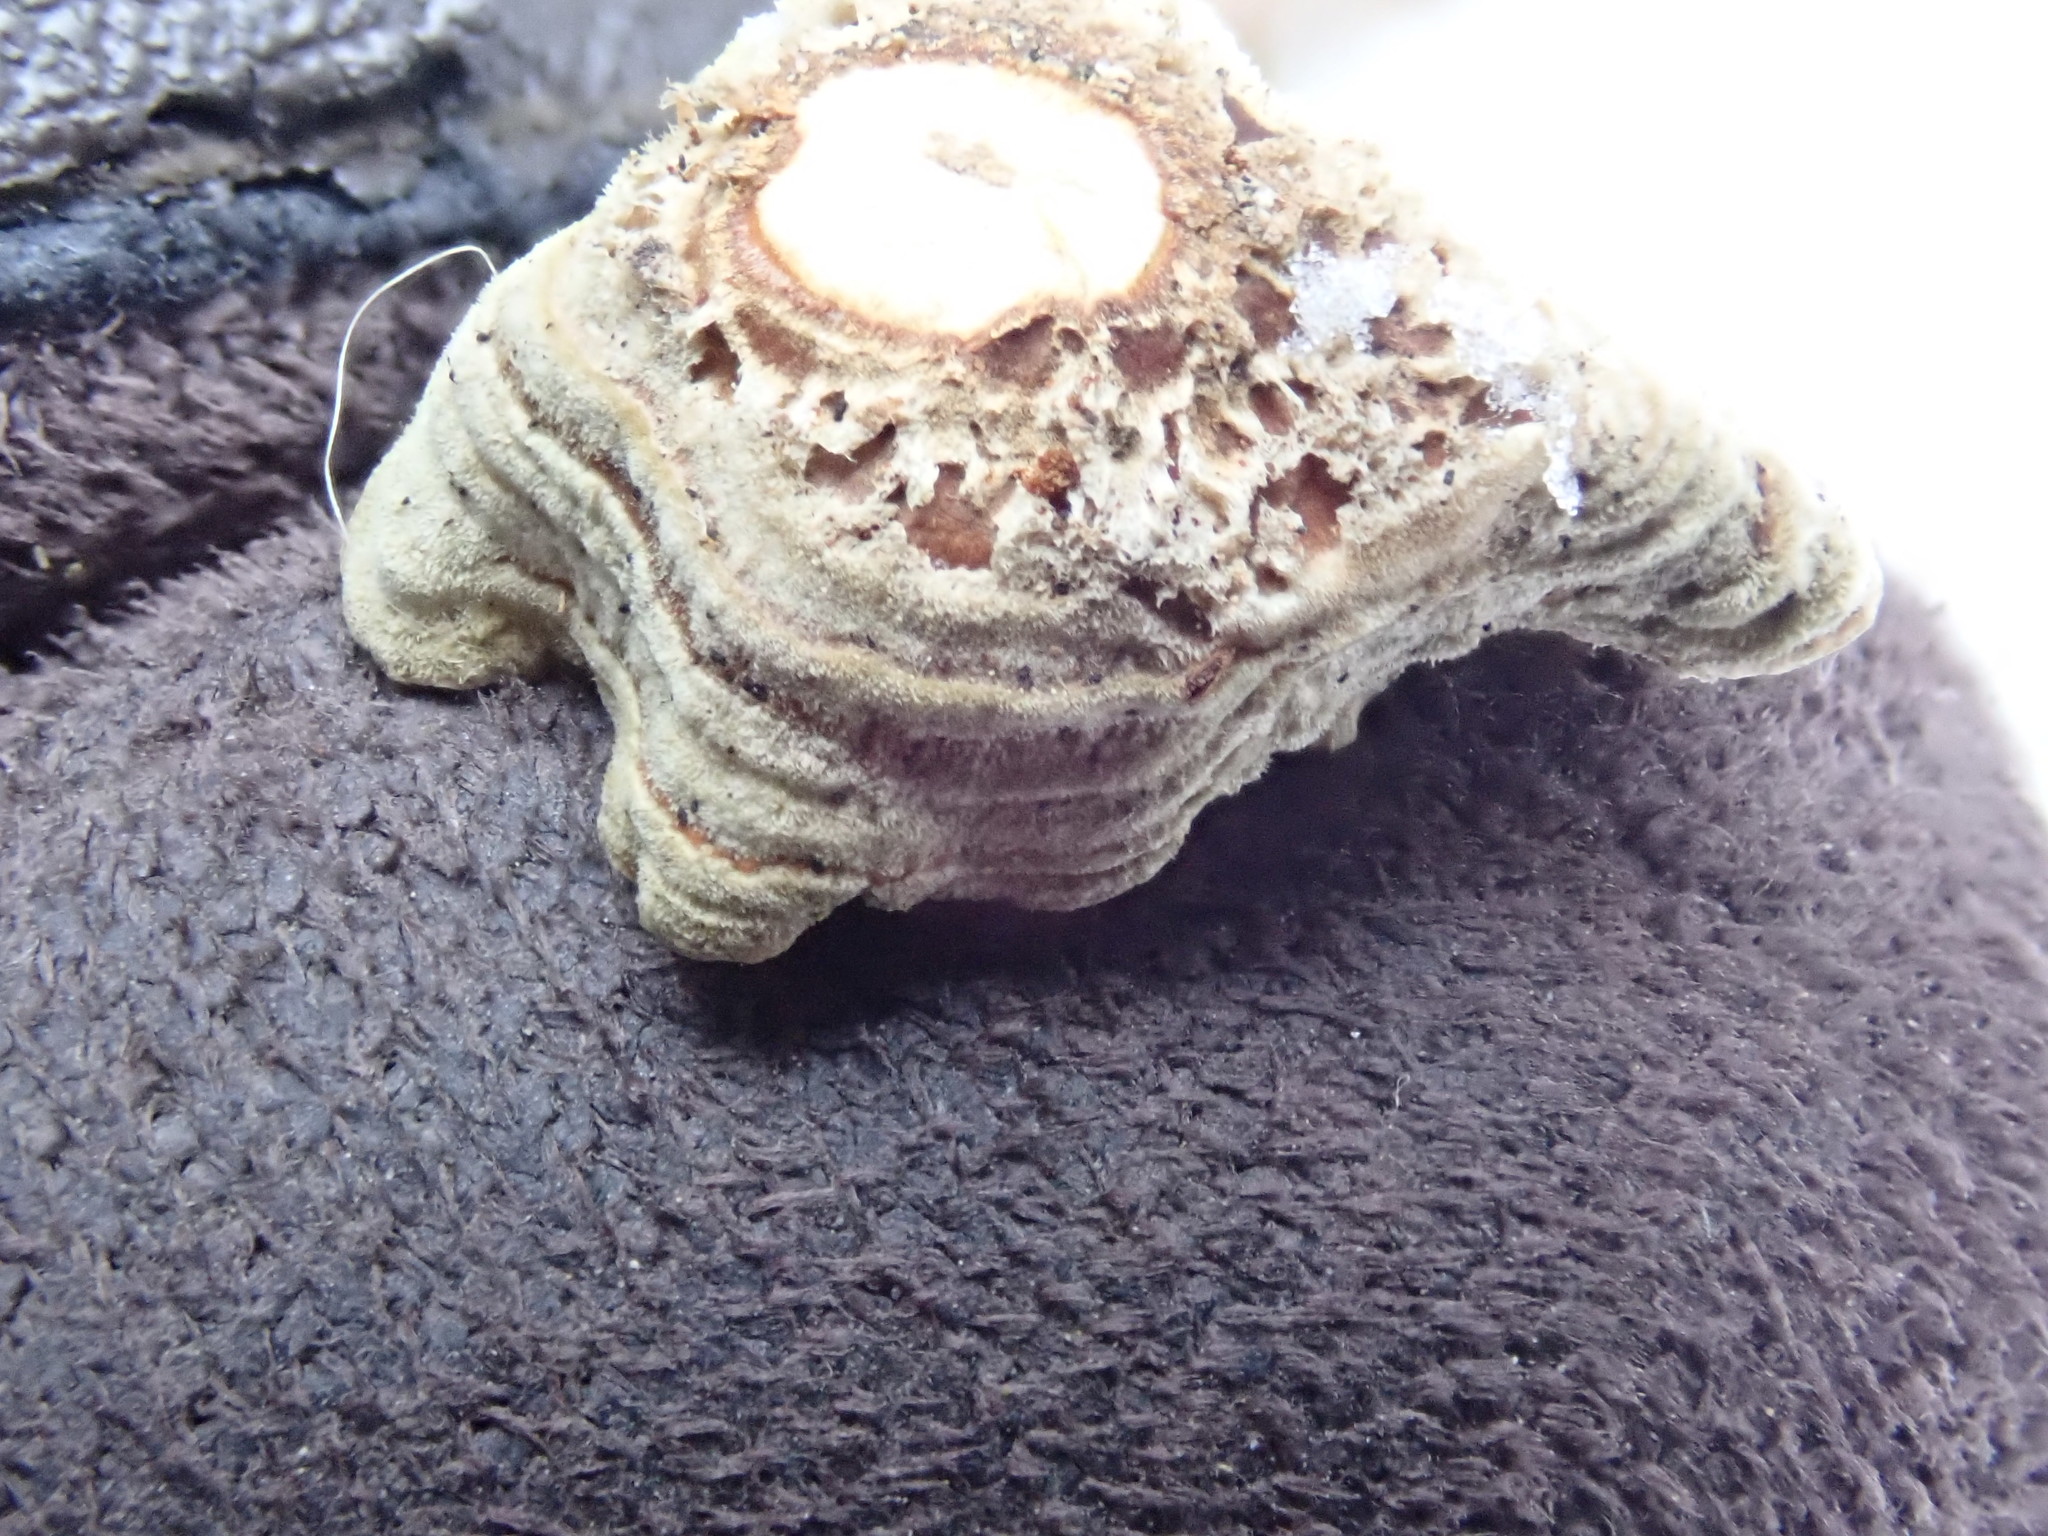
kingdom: Fungi
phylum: Basidiomycota
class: Agaricomycetes
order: Russulales
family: Stereaceae
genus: Stereum
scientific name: Stereum
